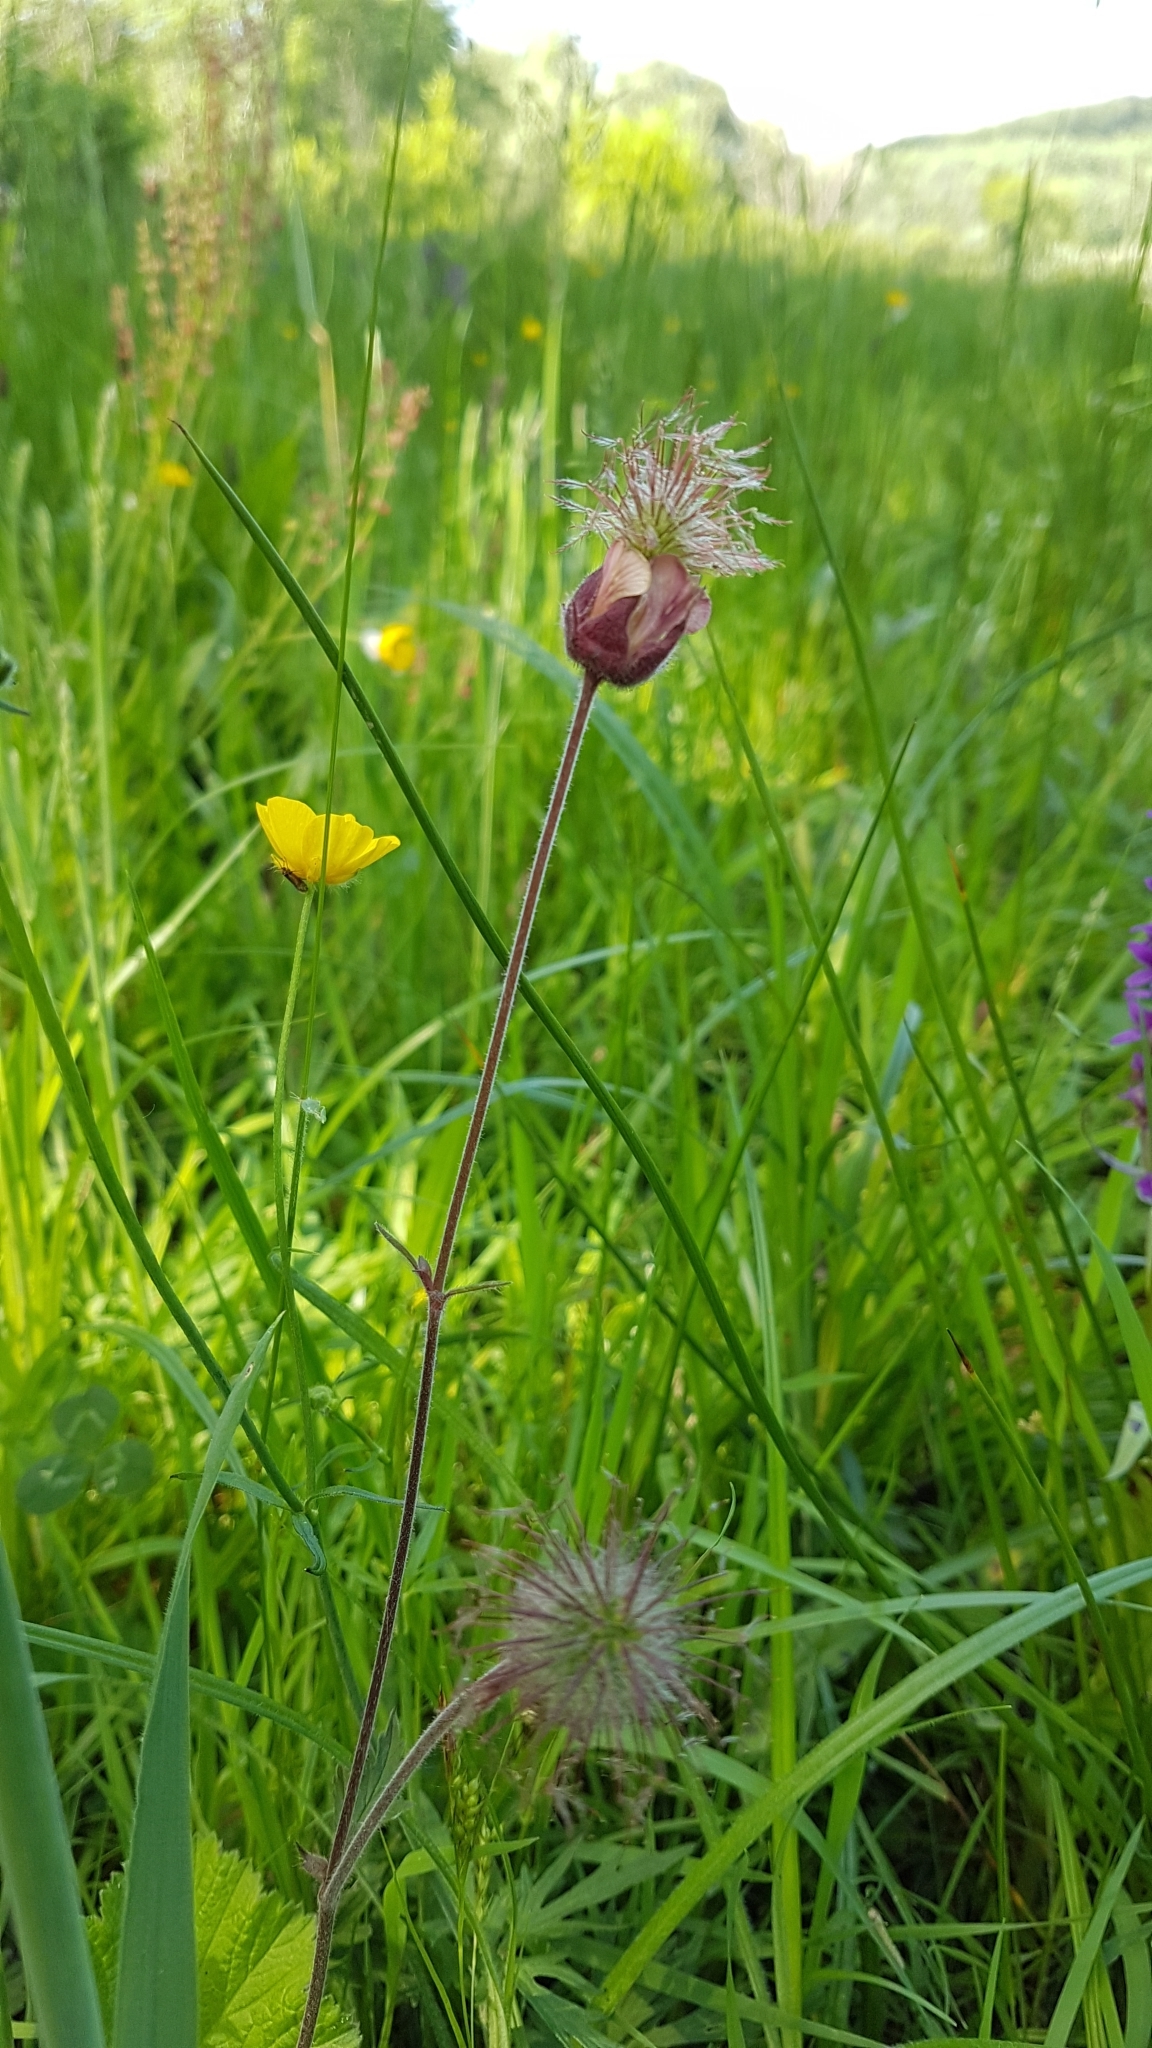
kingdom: Plantae
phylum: Tracheophyta
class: Magnoliopsida
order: Rosales
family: Rosaceae
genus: Geum
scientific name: Geum rivale
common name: Water avens
